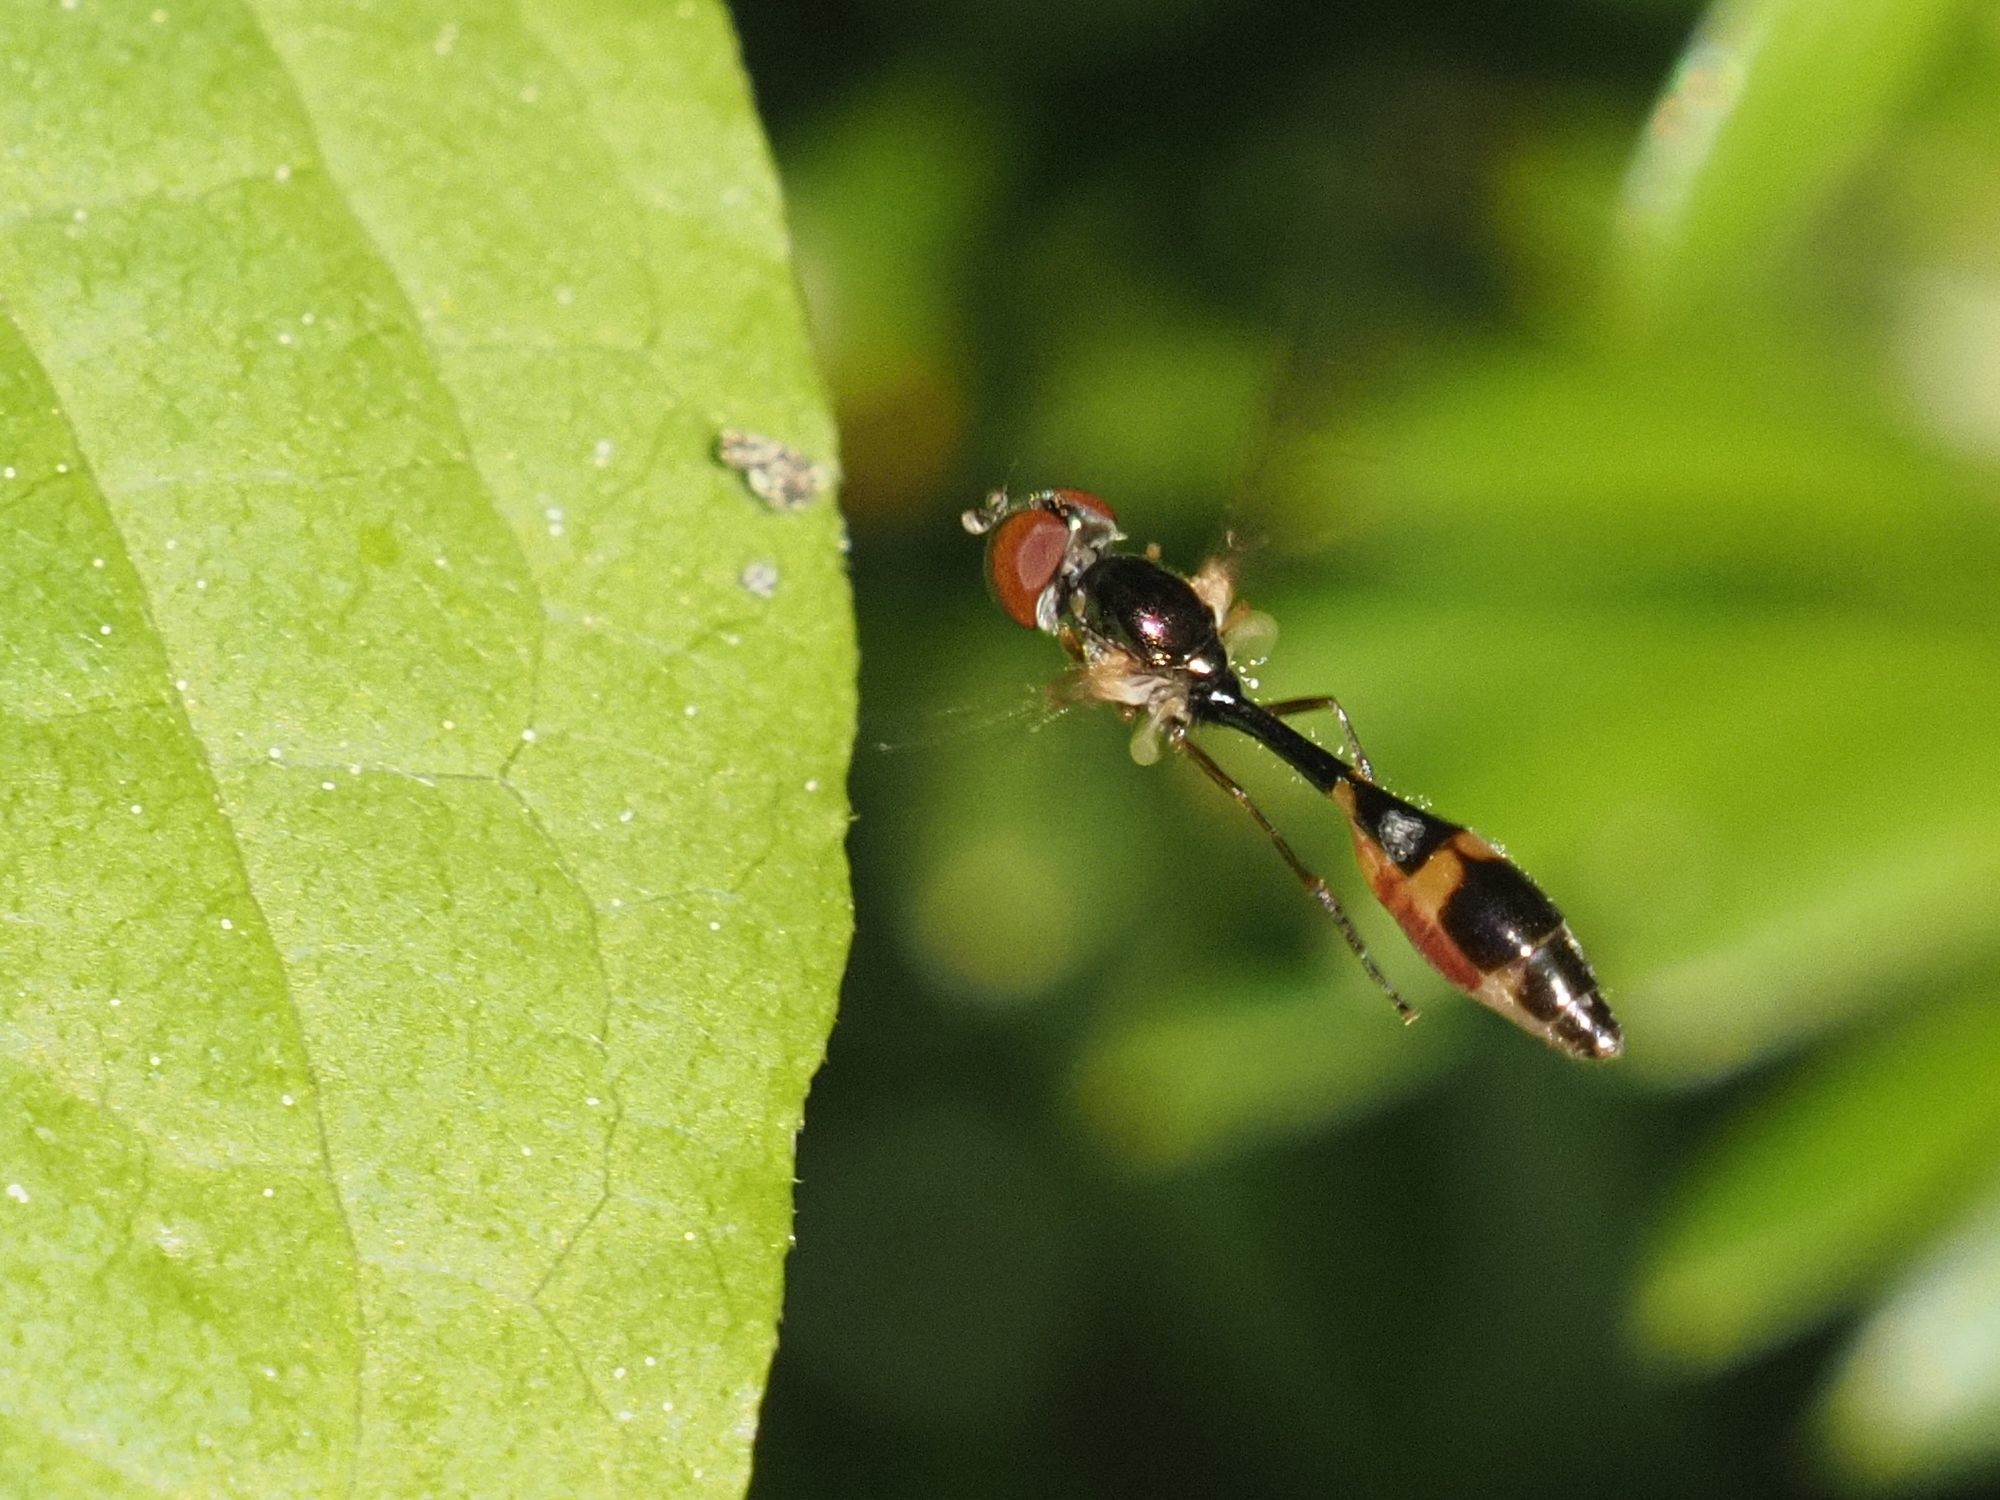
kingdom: Animalia
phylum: Arthropoda
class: Insecta
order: Diptera
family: Syrphidae
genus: Baccha
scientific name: Baccha elongata
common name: Common dainty
